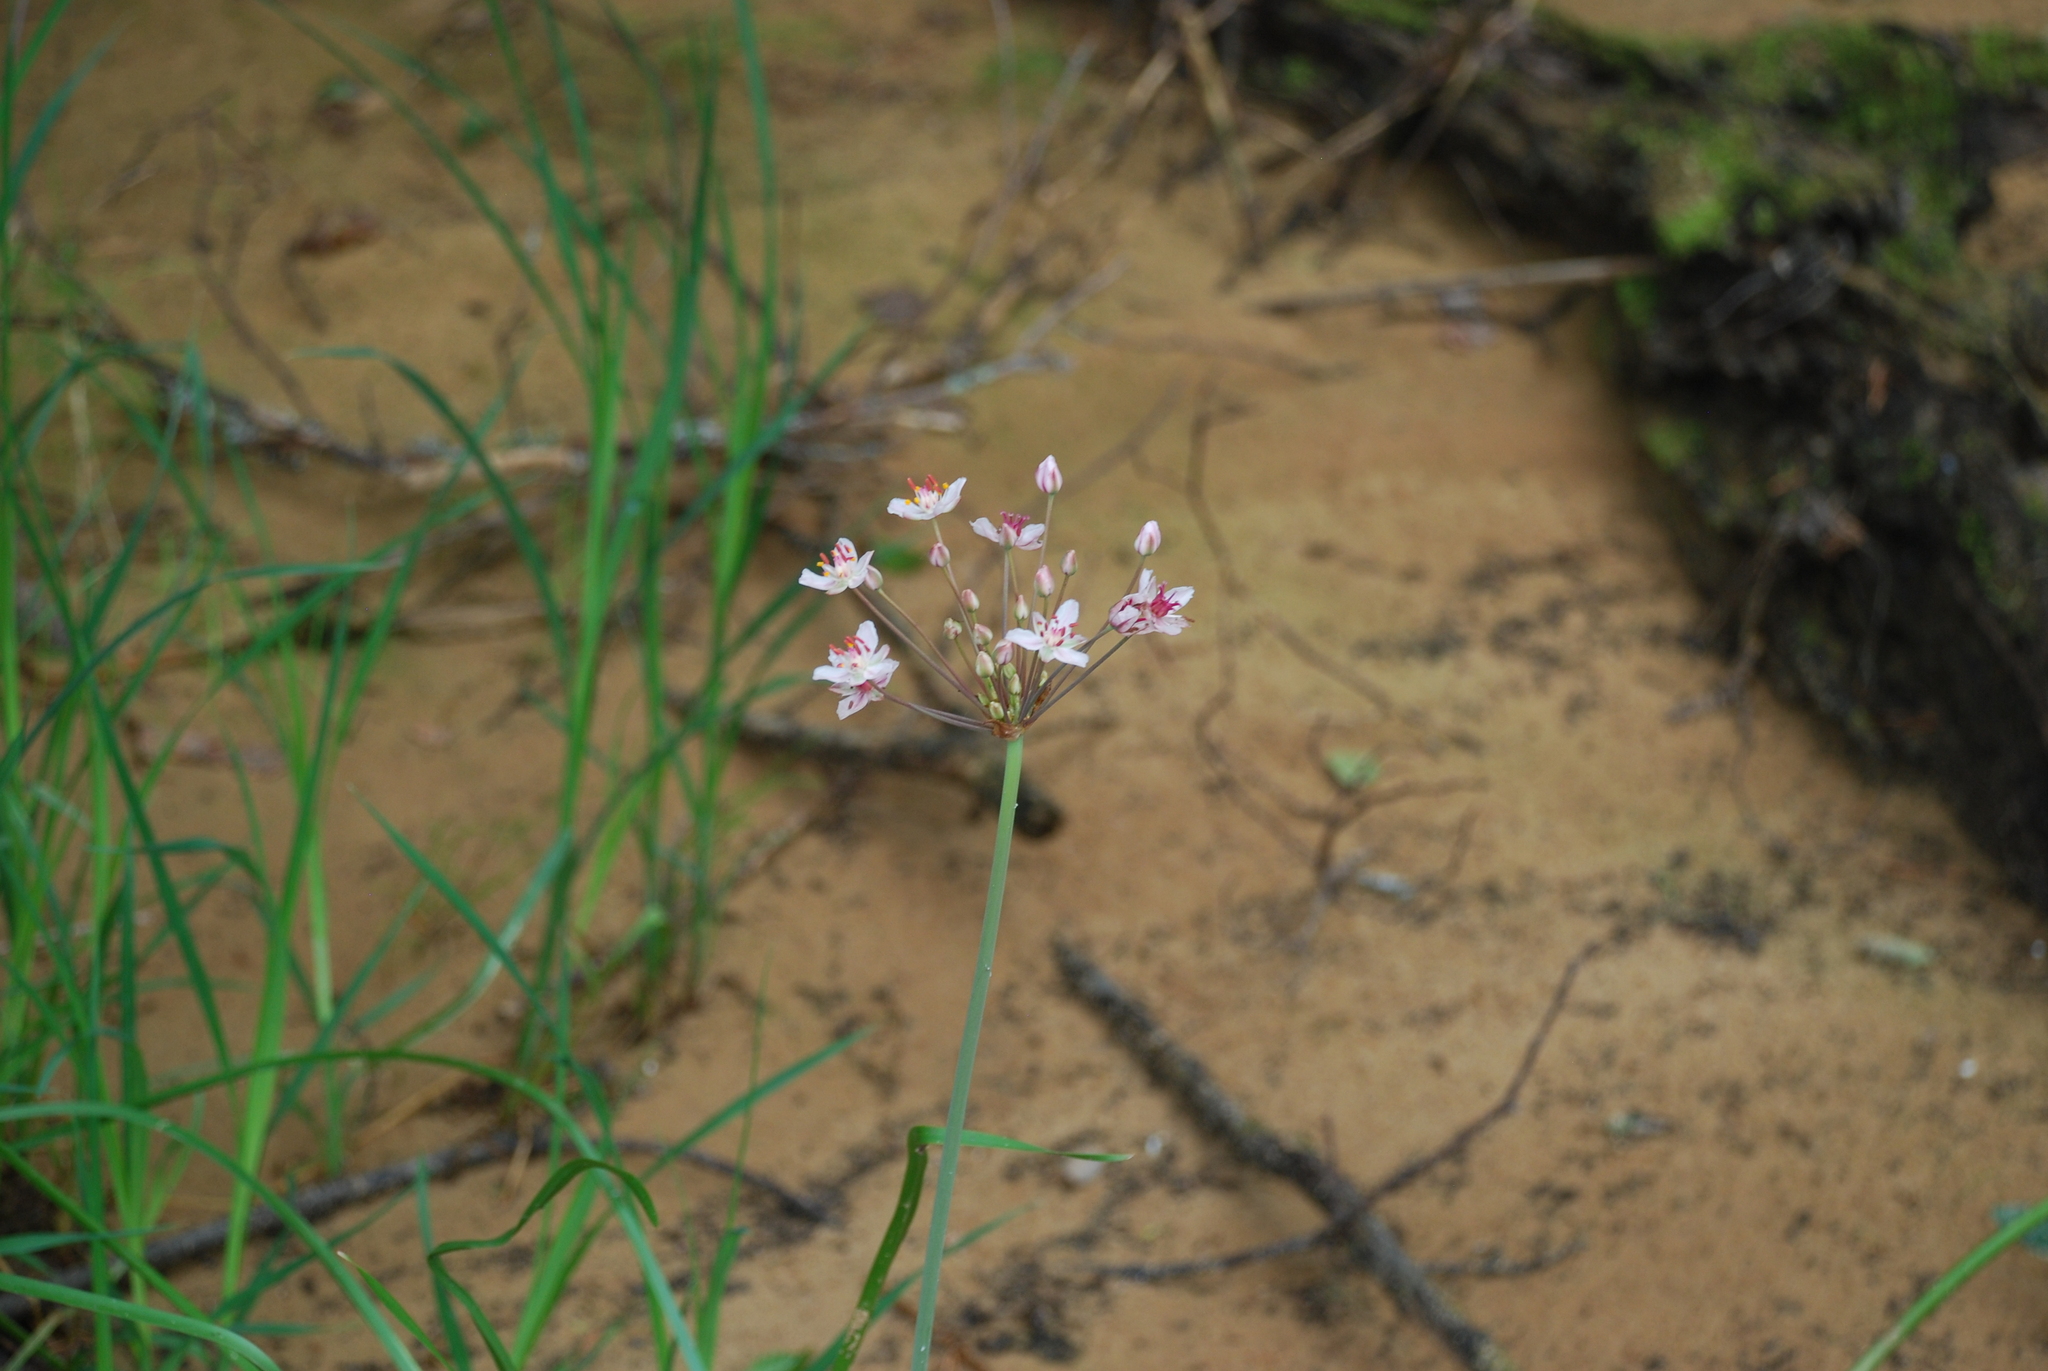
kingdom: Plantae
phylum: Tracheophyta
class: Liliopsida
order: Alismatales
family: Butomaceae
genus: Butomus
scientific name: Butomus umbellatus
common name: Flowering-rush
